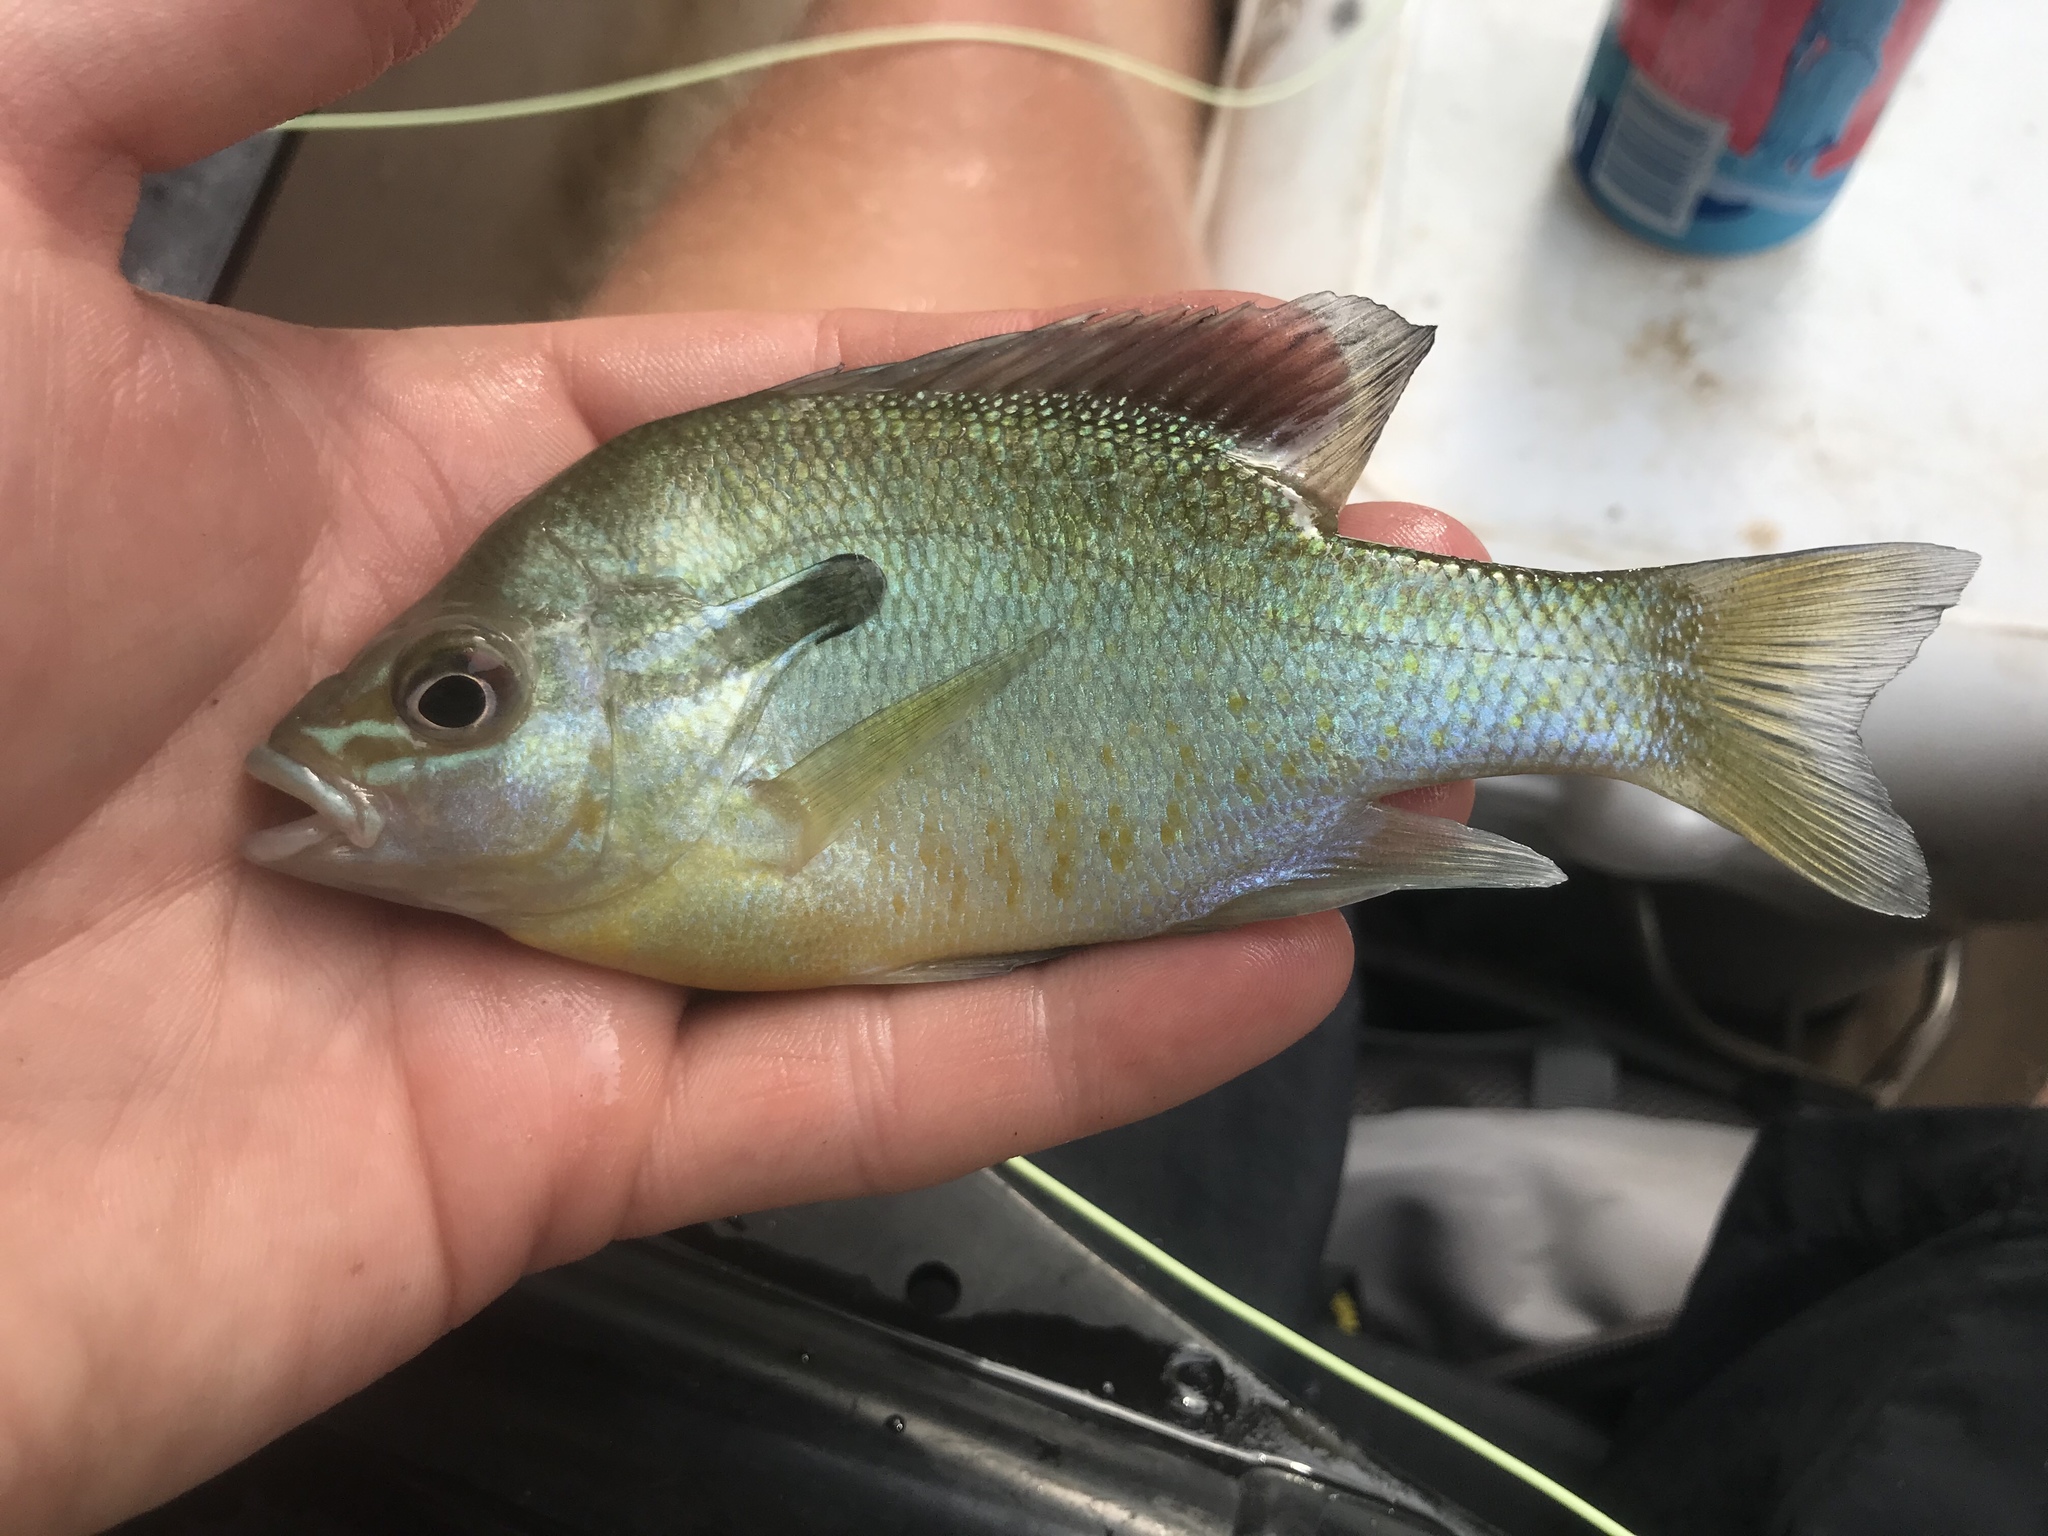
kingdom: Animalia
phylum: Chordata
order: Perciformes
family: Centrarchidae
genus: Lepomis
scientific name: Lepomis auritus
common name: Redbreast sunfish
